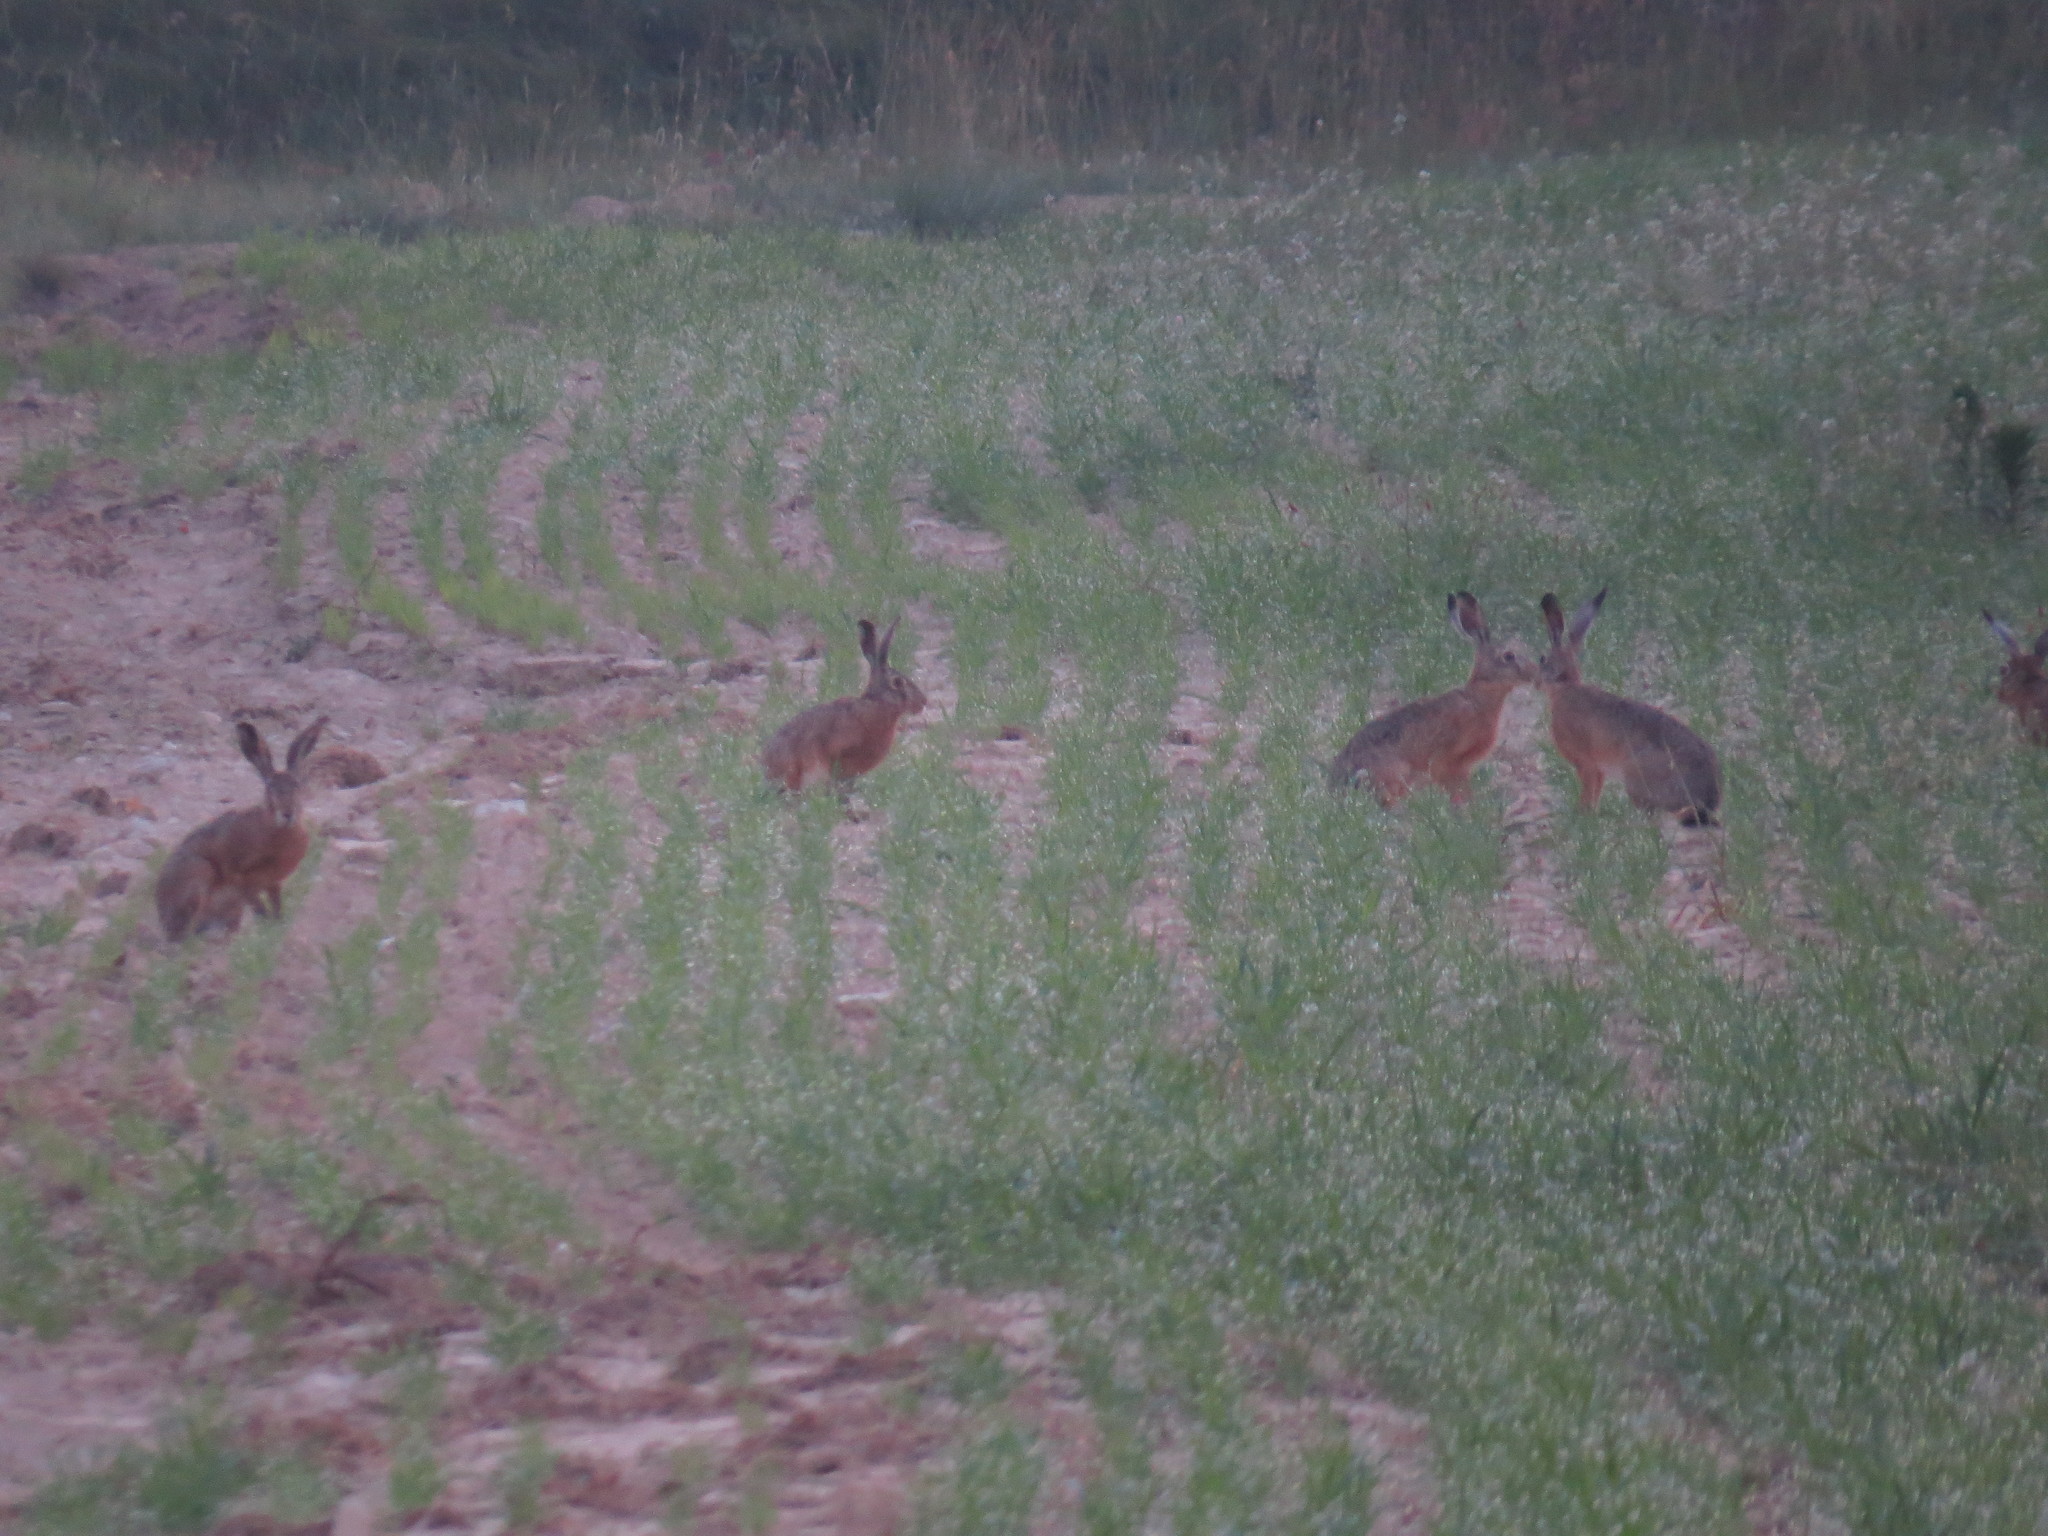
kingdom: Animalia
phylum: Chordata
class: Mammalia
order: Lagomorpha
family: Leporidae
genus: Lepus
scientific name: Lepus europaeus
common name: European hare
